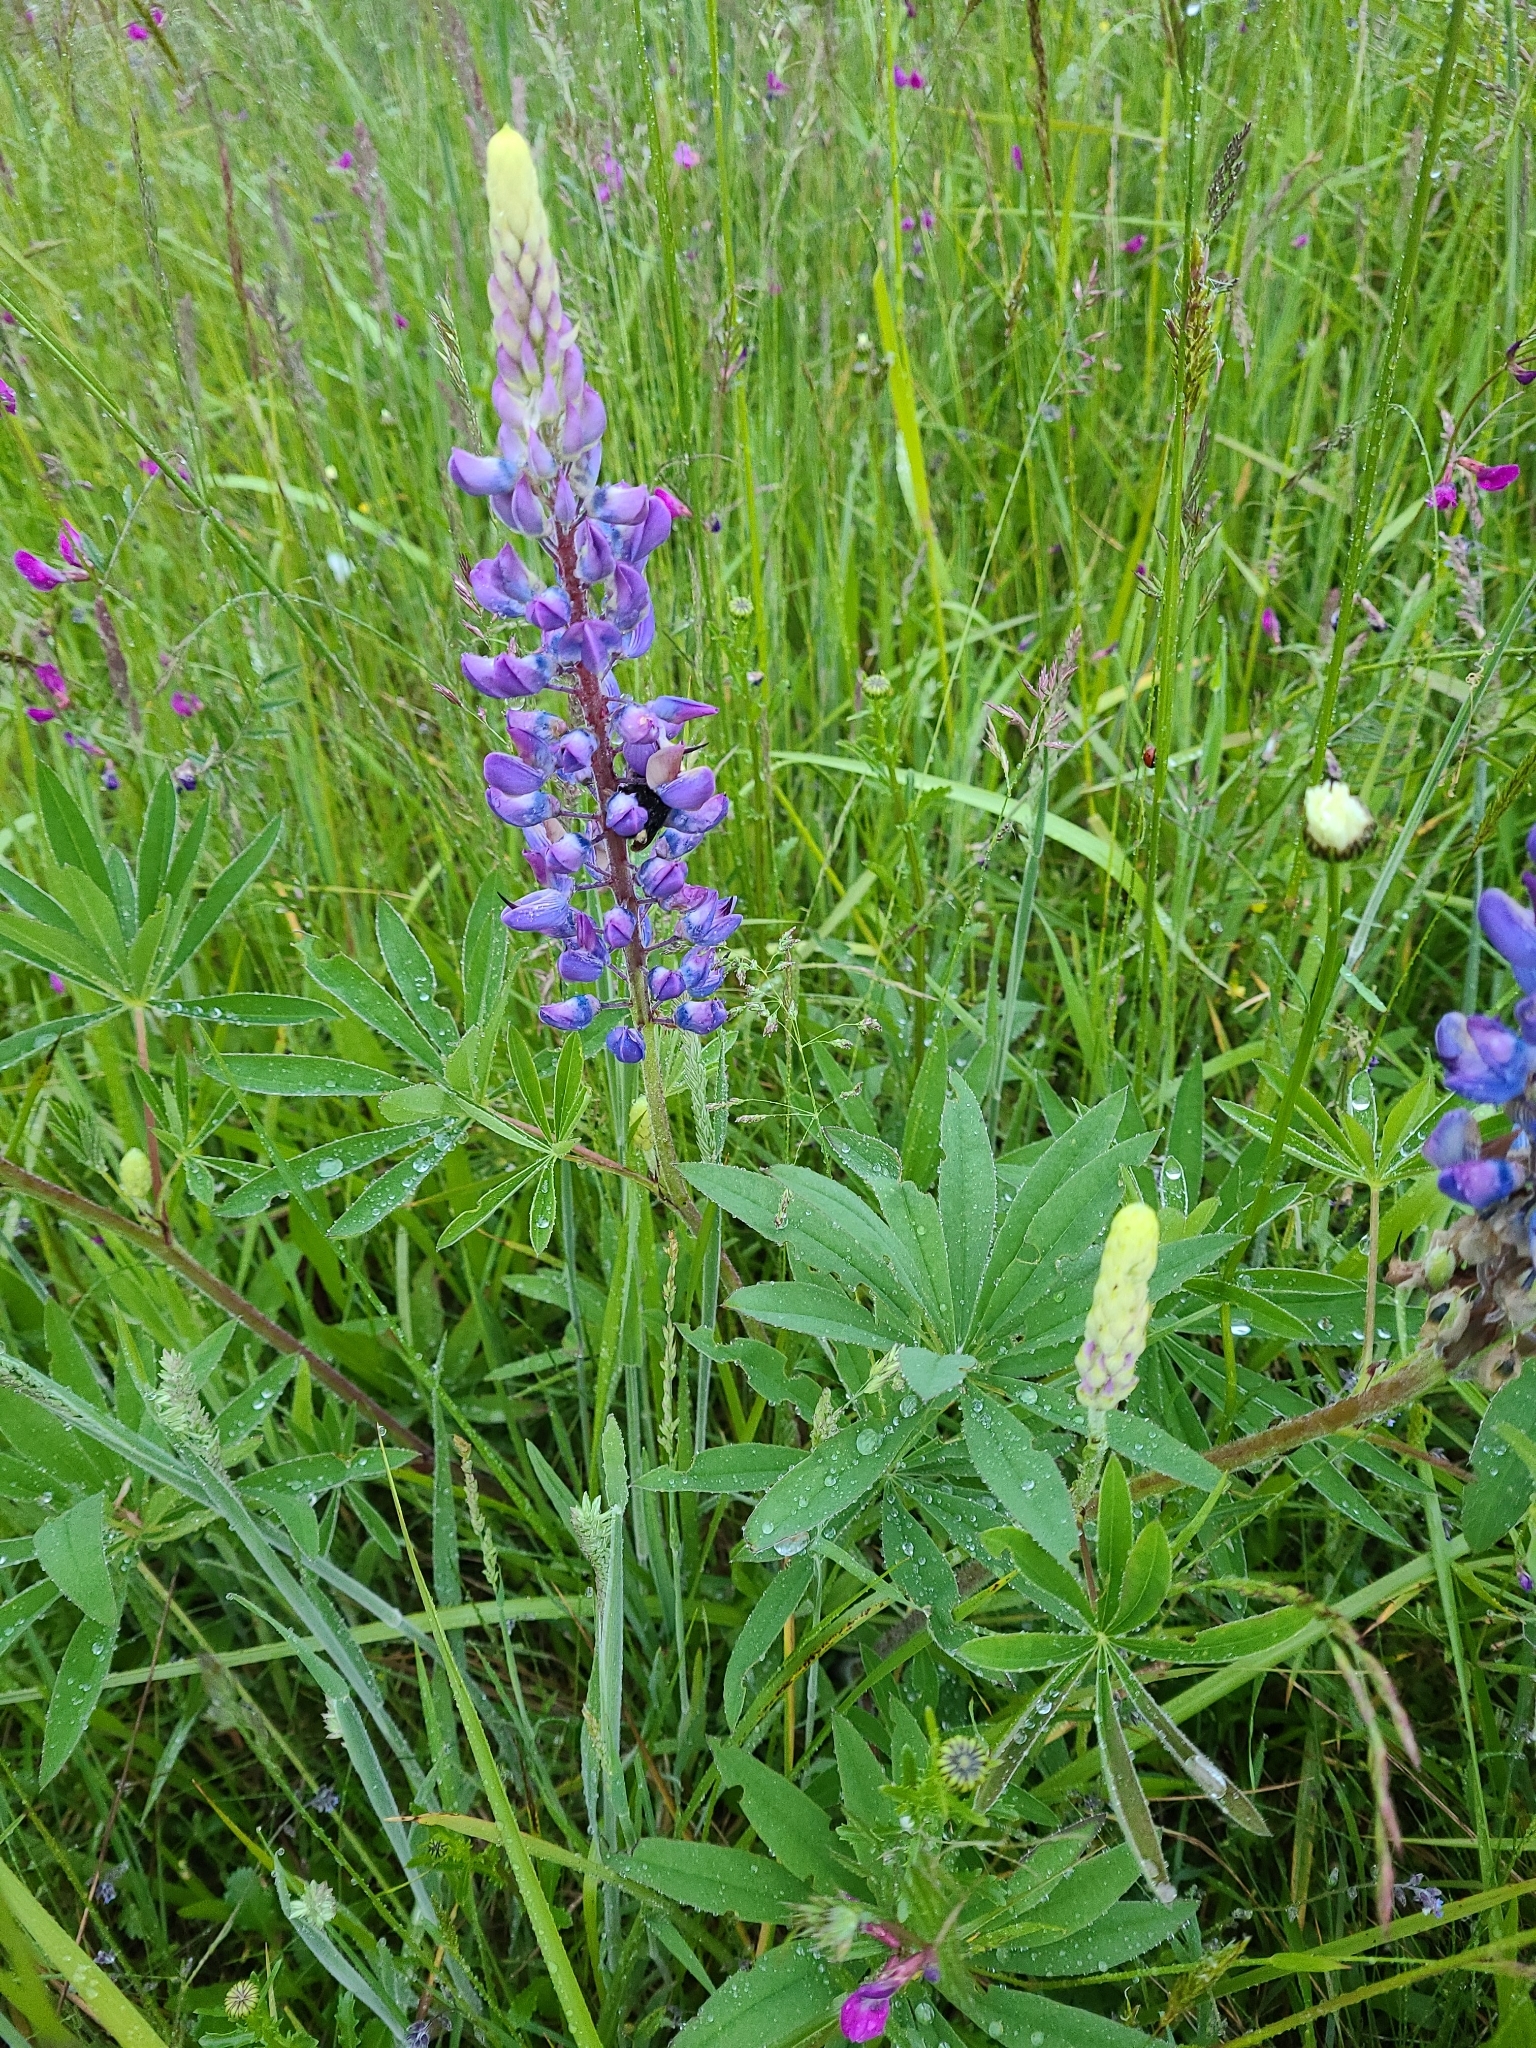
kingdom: Plantae
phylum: Tracheophyta
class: Magnoliopsida
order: Fabales
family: Fabaceae
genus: Lupinus
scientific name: Lupinus polyphyllus
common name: Garden lupin
